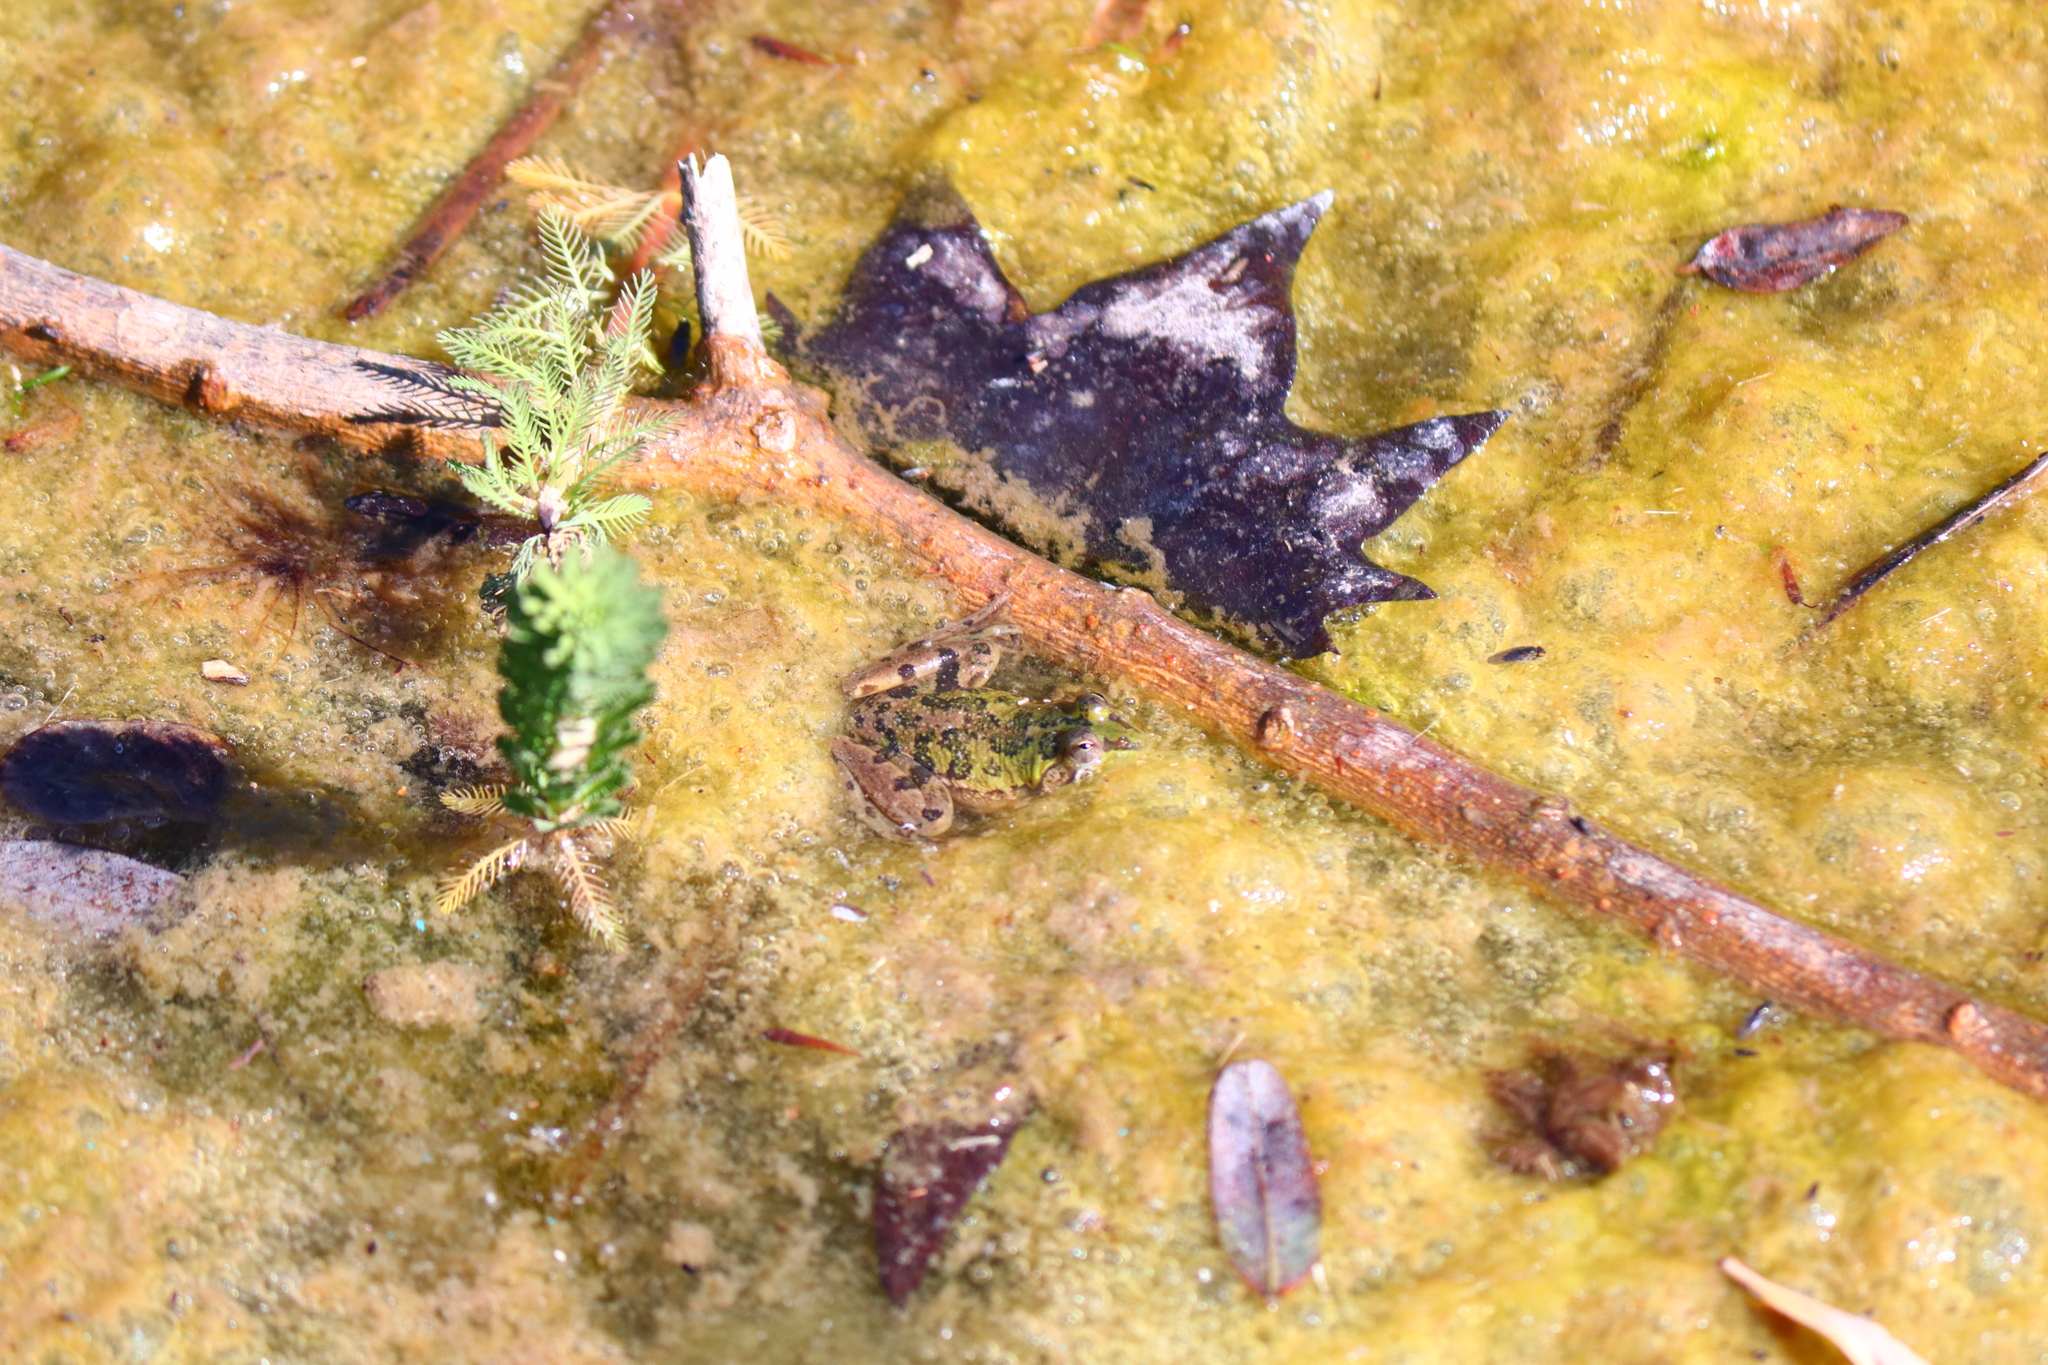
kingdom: Animalia
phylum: Chordata
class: Amphibia
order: Anura
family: Hylidae
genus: Pseudis
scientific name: Pseudis minuta
